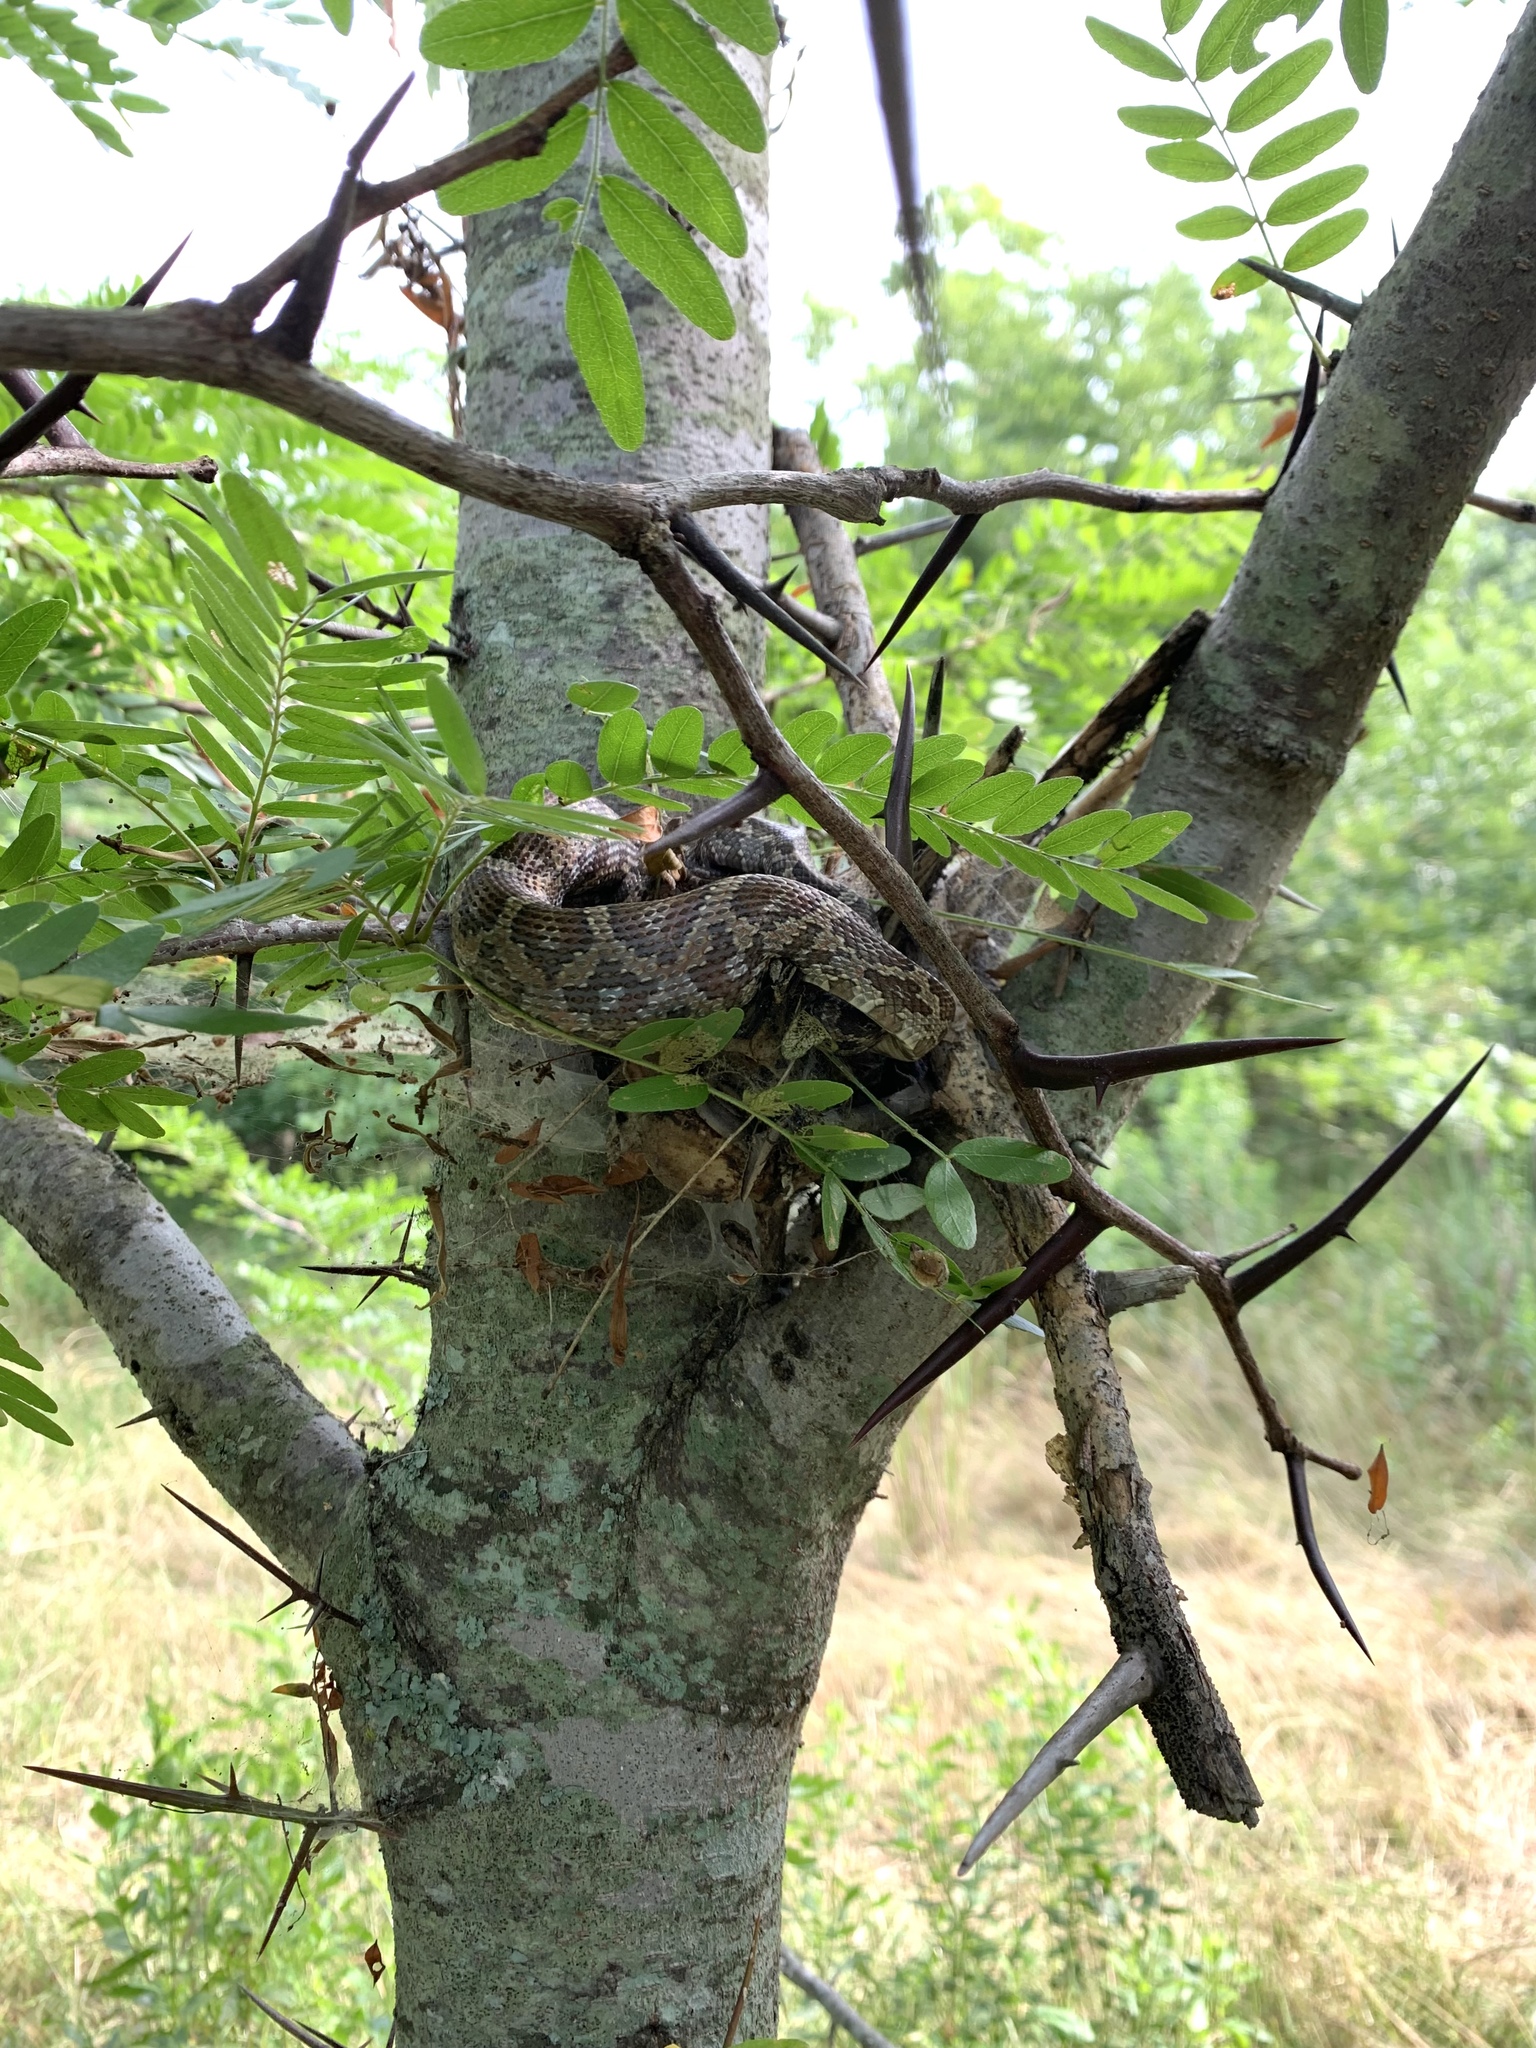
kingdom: Animalia
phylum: Chordata
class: Squamata
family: Colubridae
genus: Pantherophis
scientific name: Pantherophis obsoletus
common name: Black rat snake
